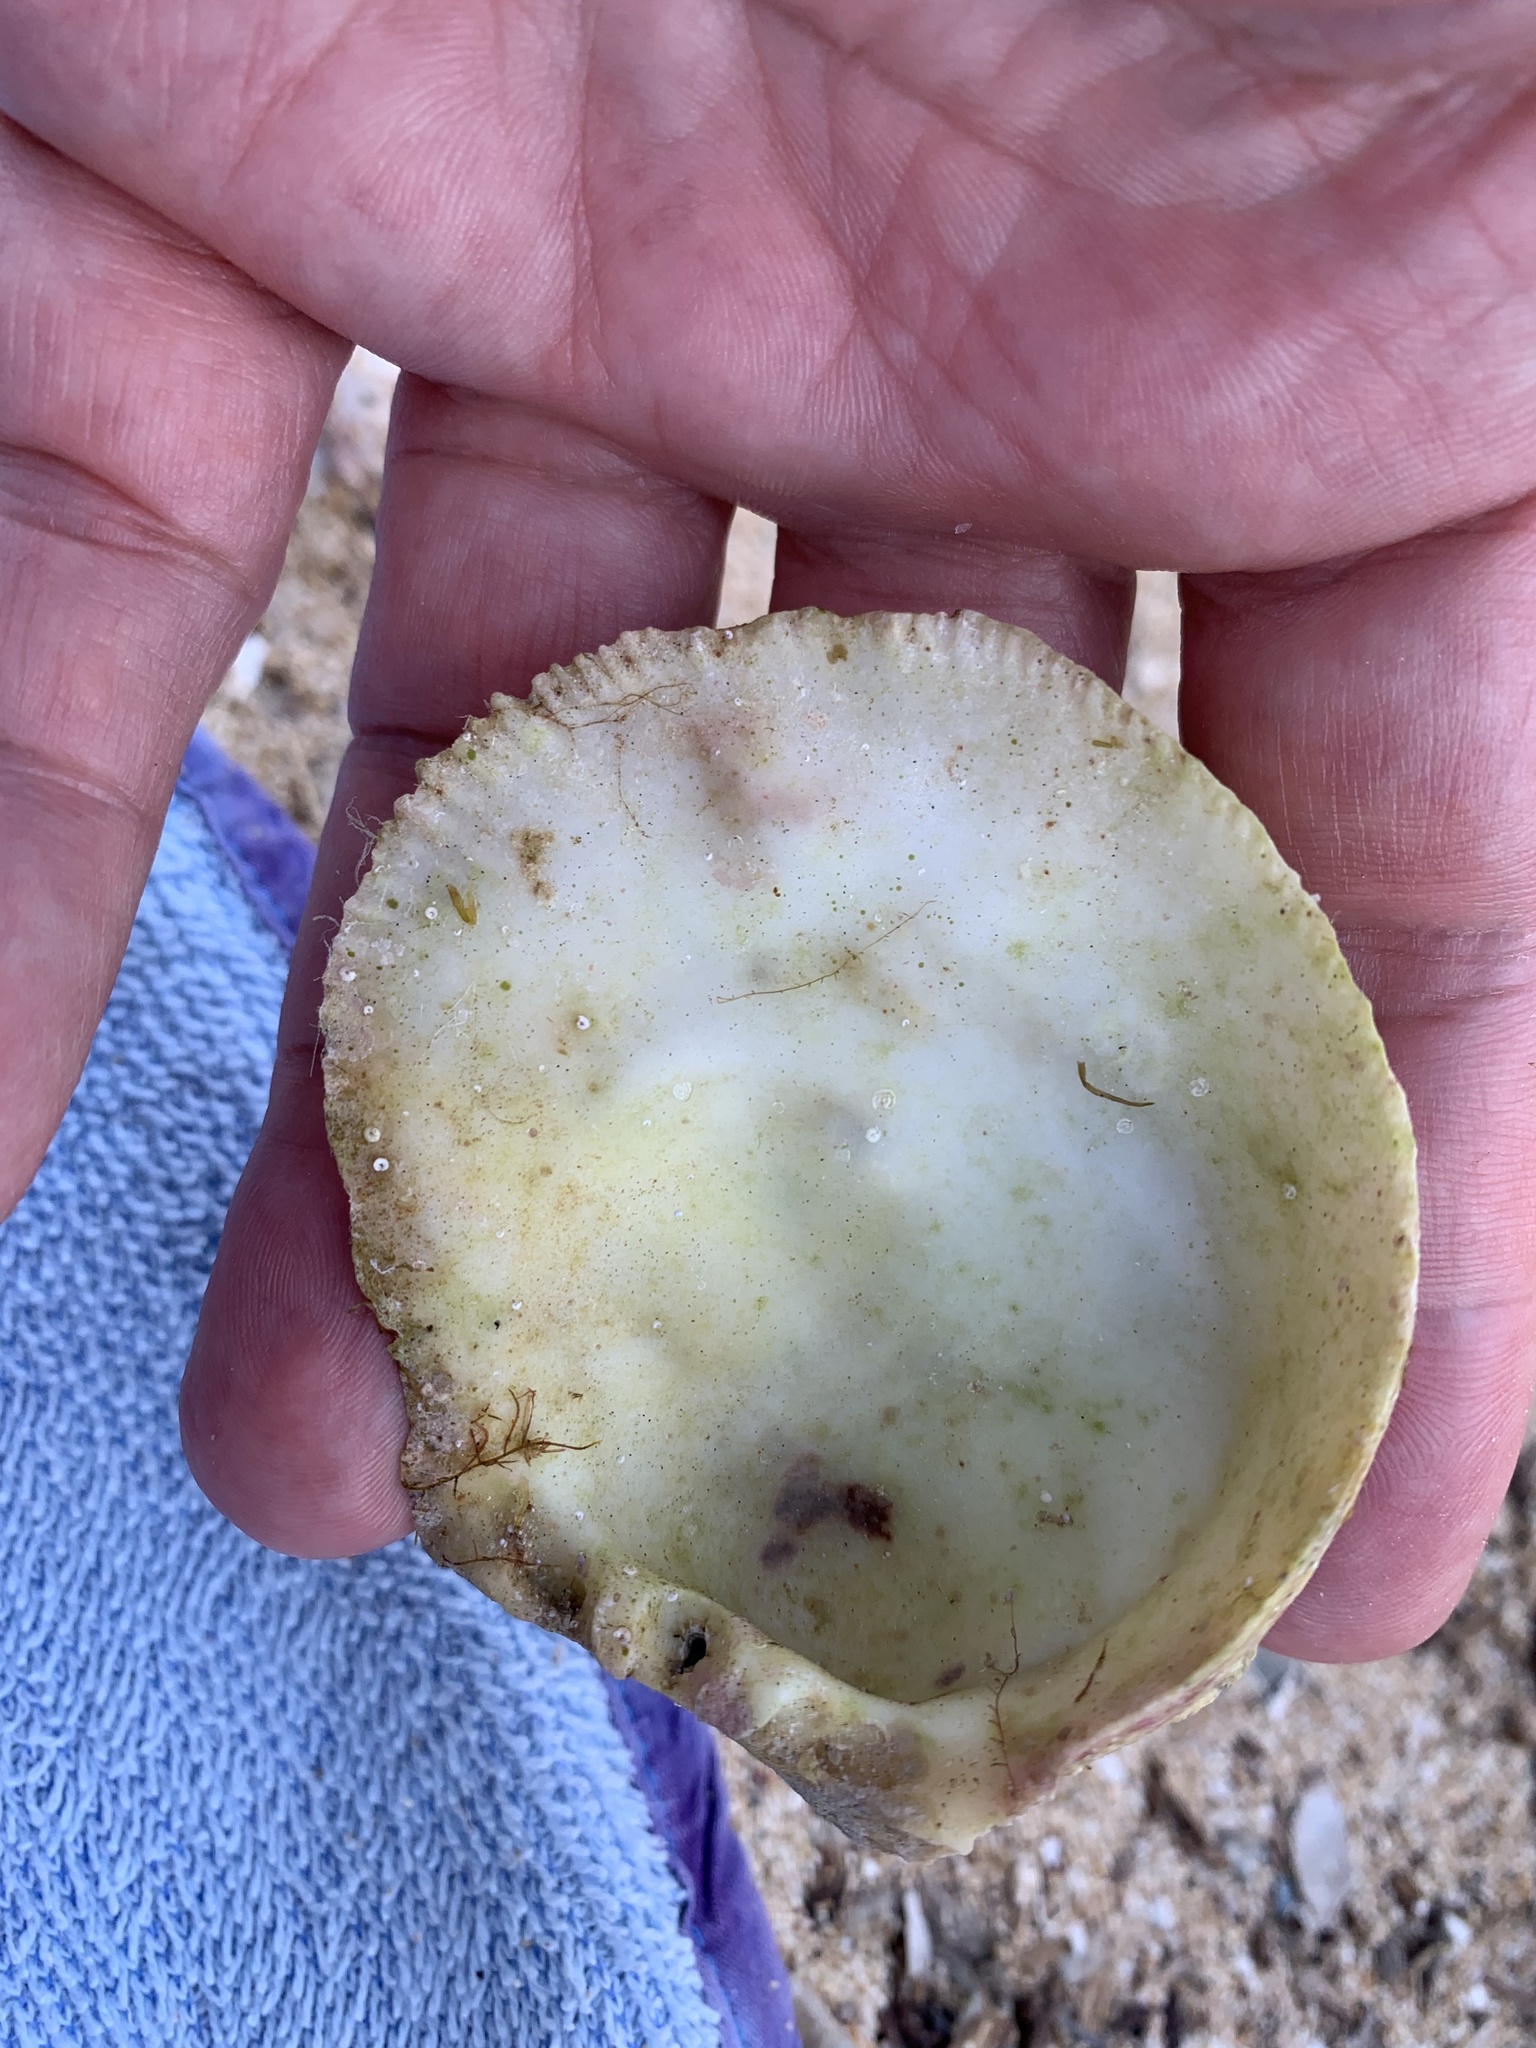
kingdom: Animalia
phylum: Mollusca
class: Bivalvia
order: Pectinida
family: Spondylidae
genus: Spondylus
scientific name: Spondylus gaederopus
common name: European thorny oyster
